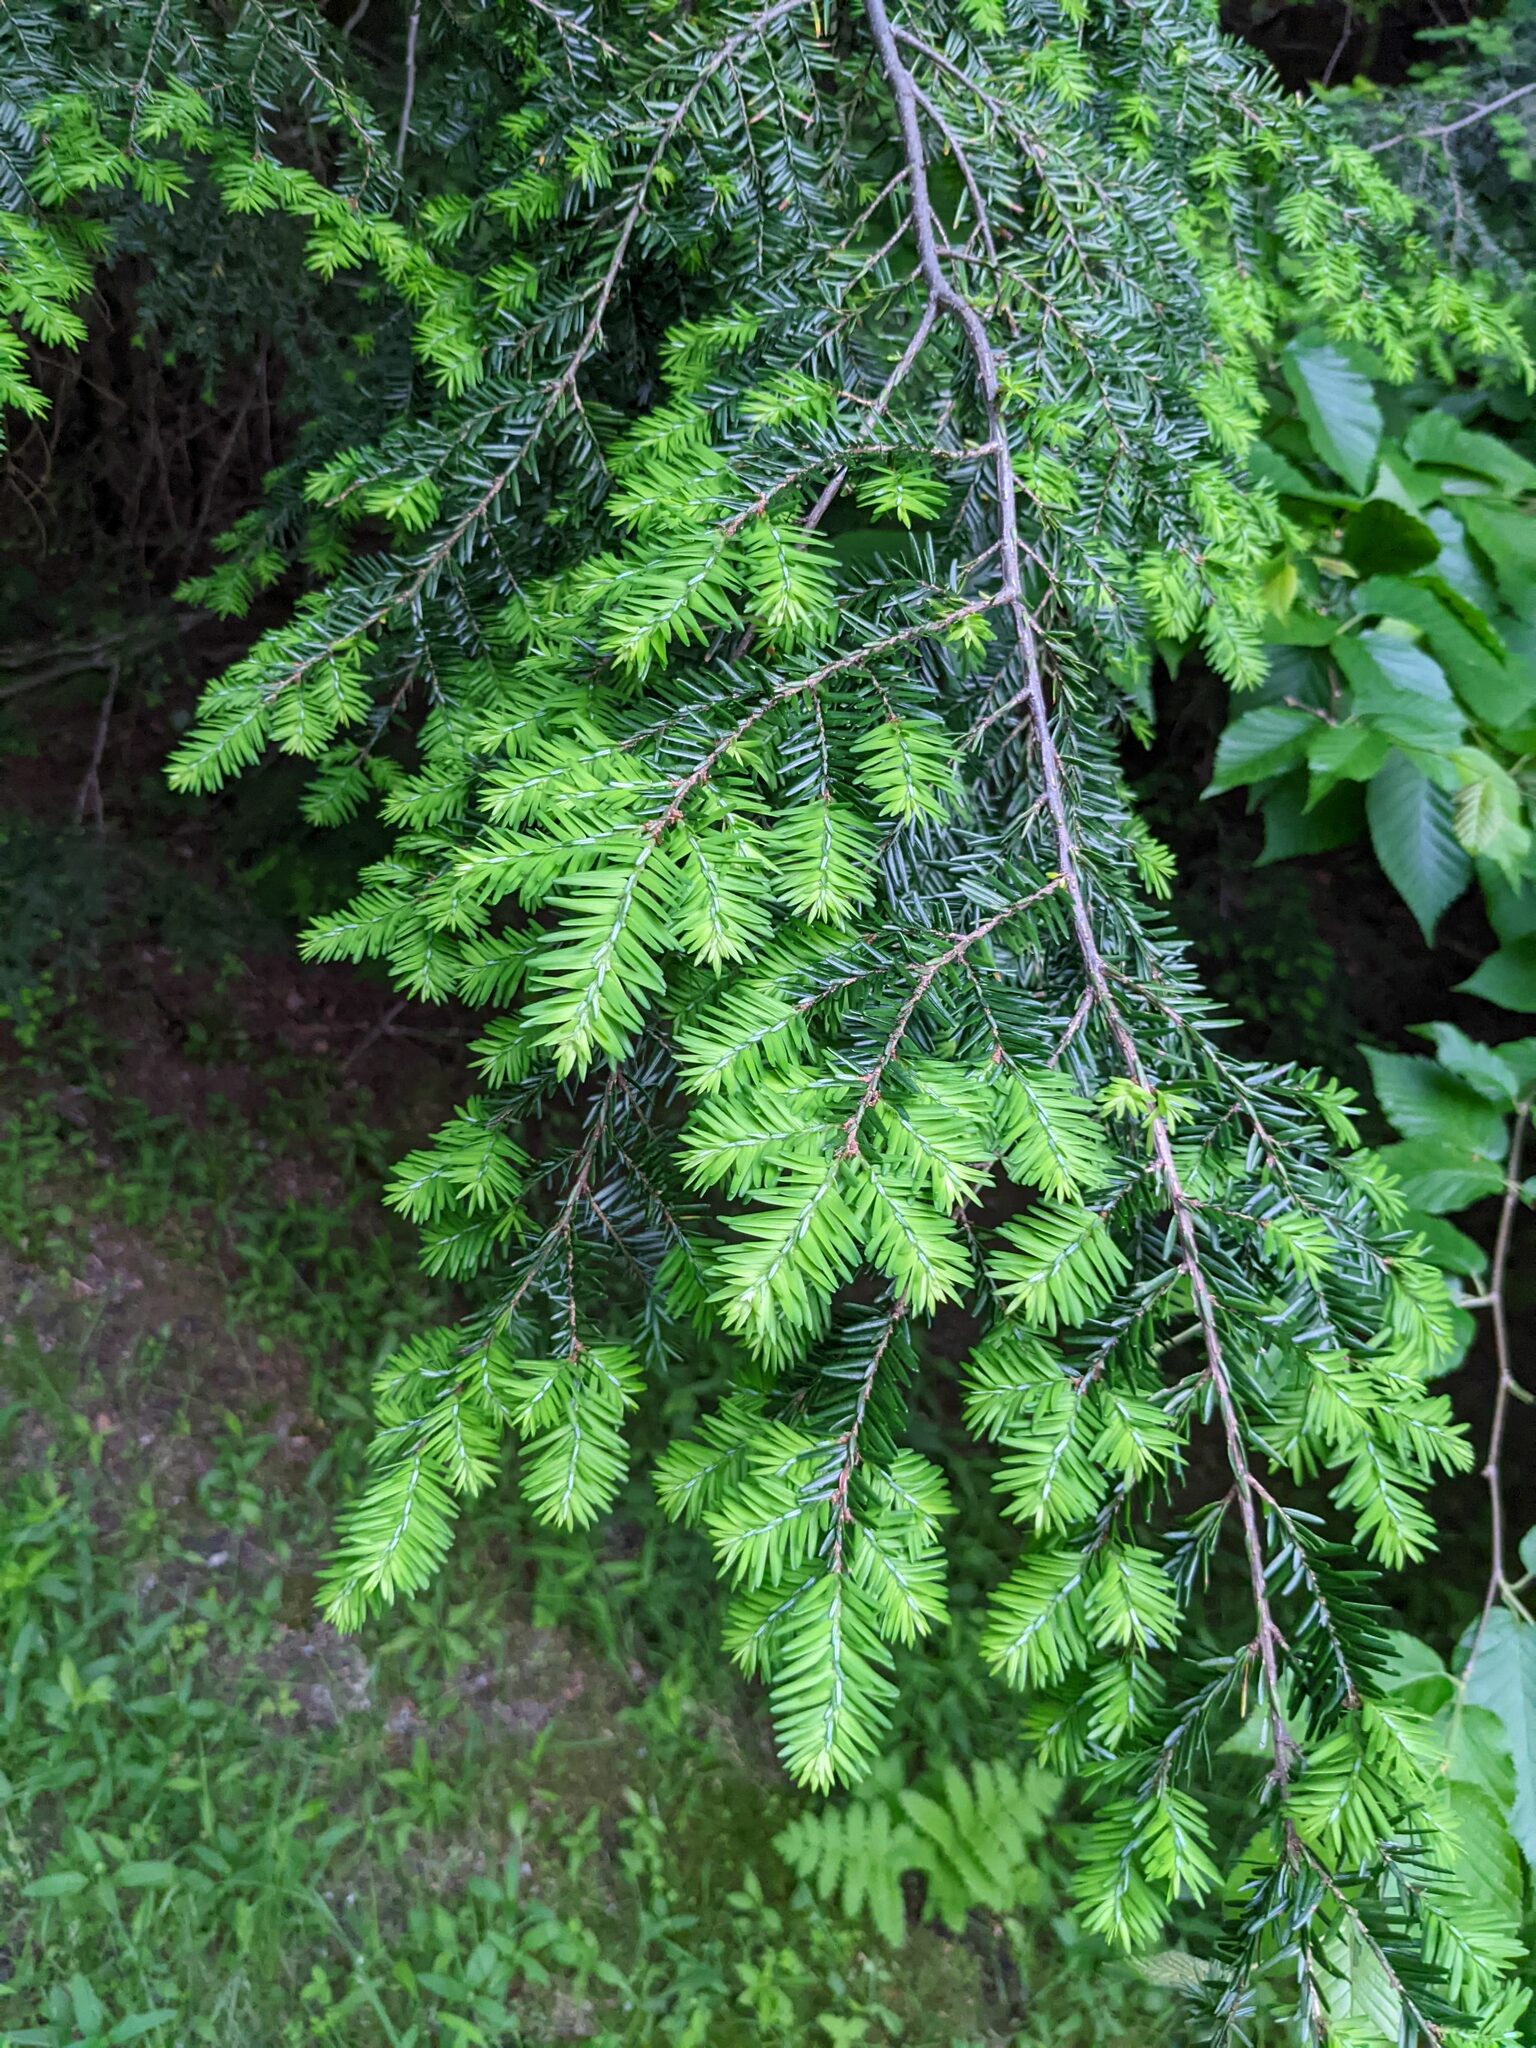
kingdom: Plantae
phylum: Tracheophyta
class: Pinopsida
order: Pinales
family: Pinaceae
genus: Tsuga
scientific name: Tsuga canadensis
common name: Eastern hemlock
